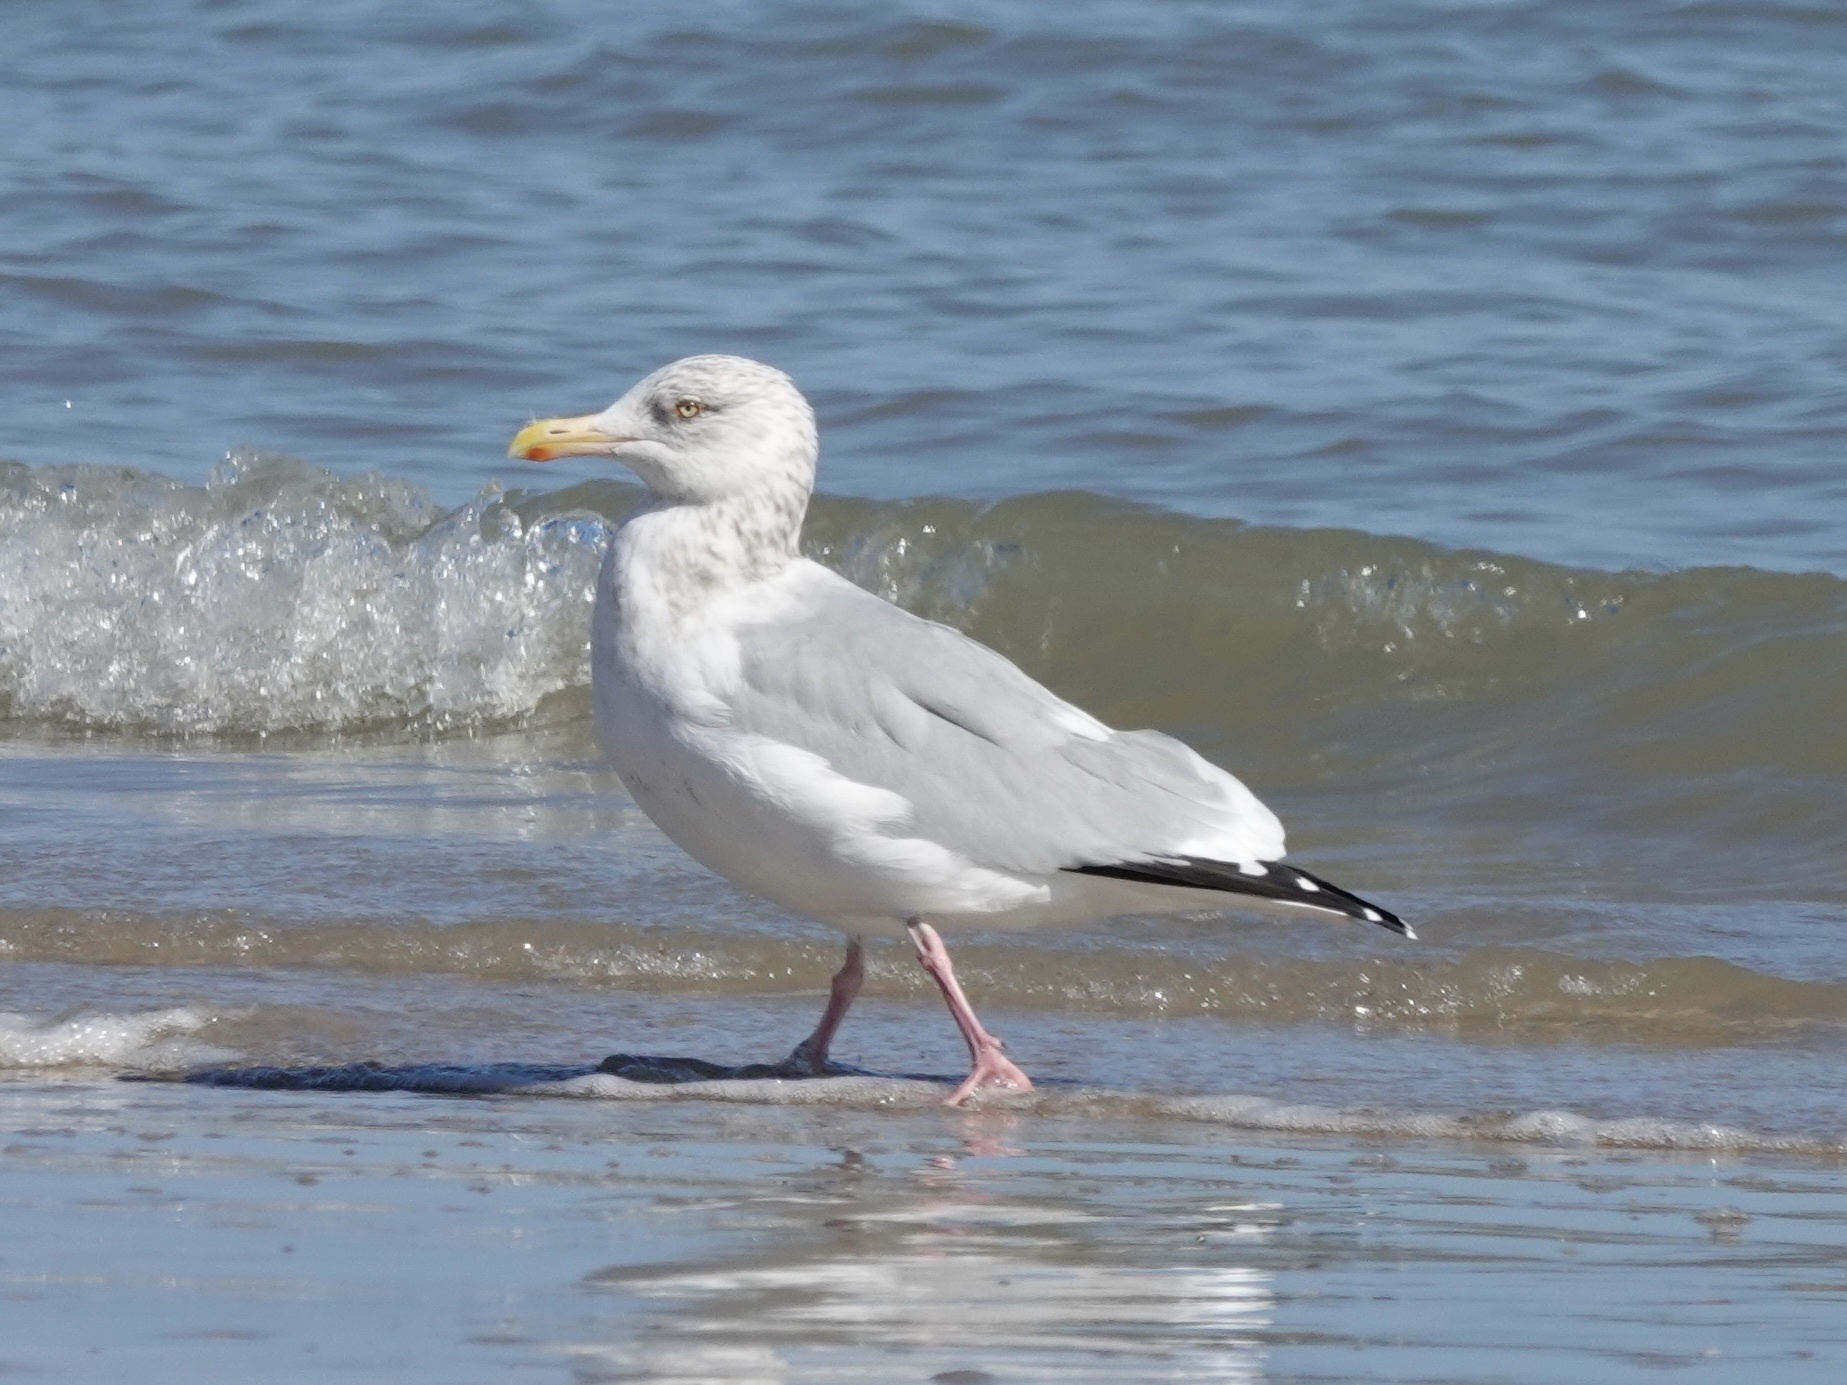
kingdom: Animalia
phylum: Chordata
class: Aves
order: Charadriiformes
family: Laridae
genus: Larus
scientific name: Larus argentatus
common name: Herring gull
